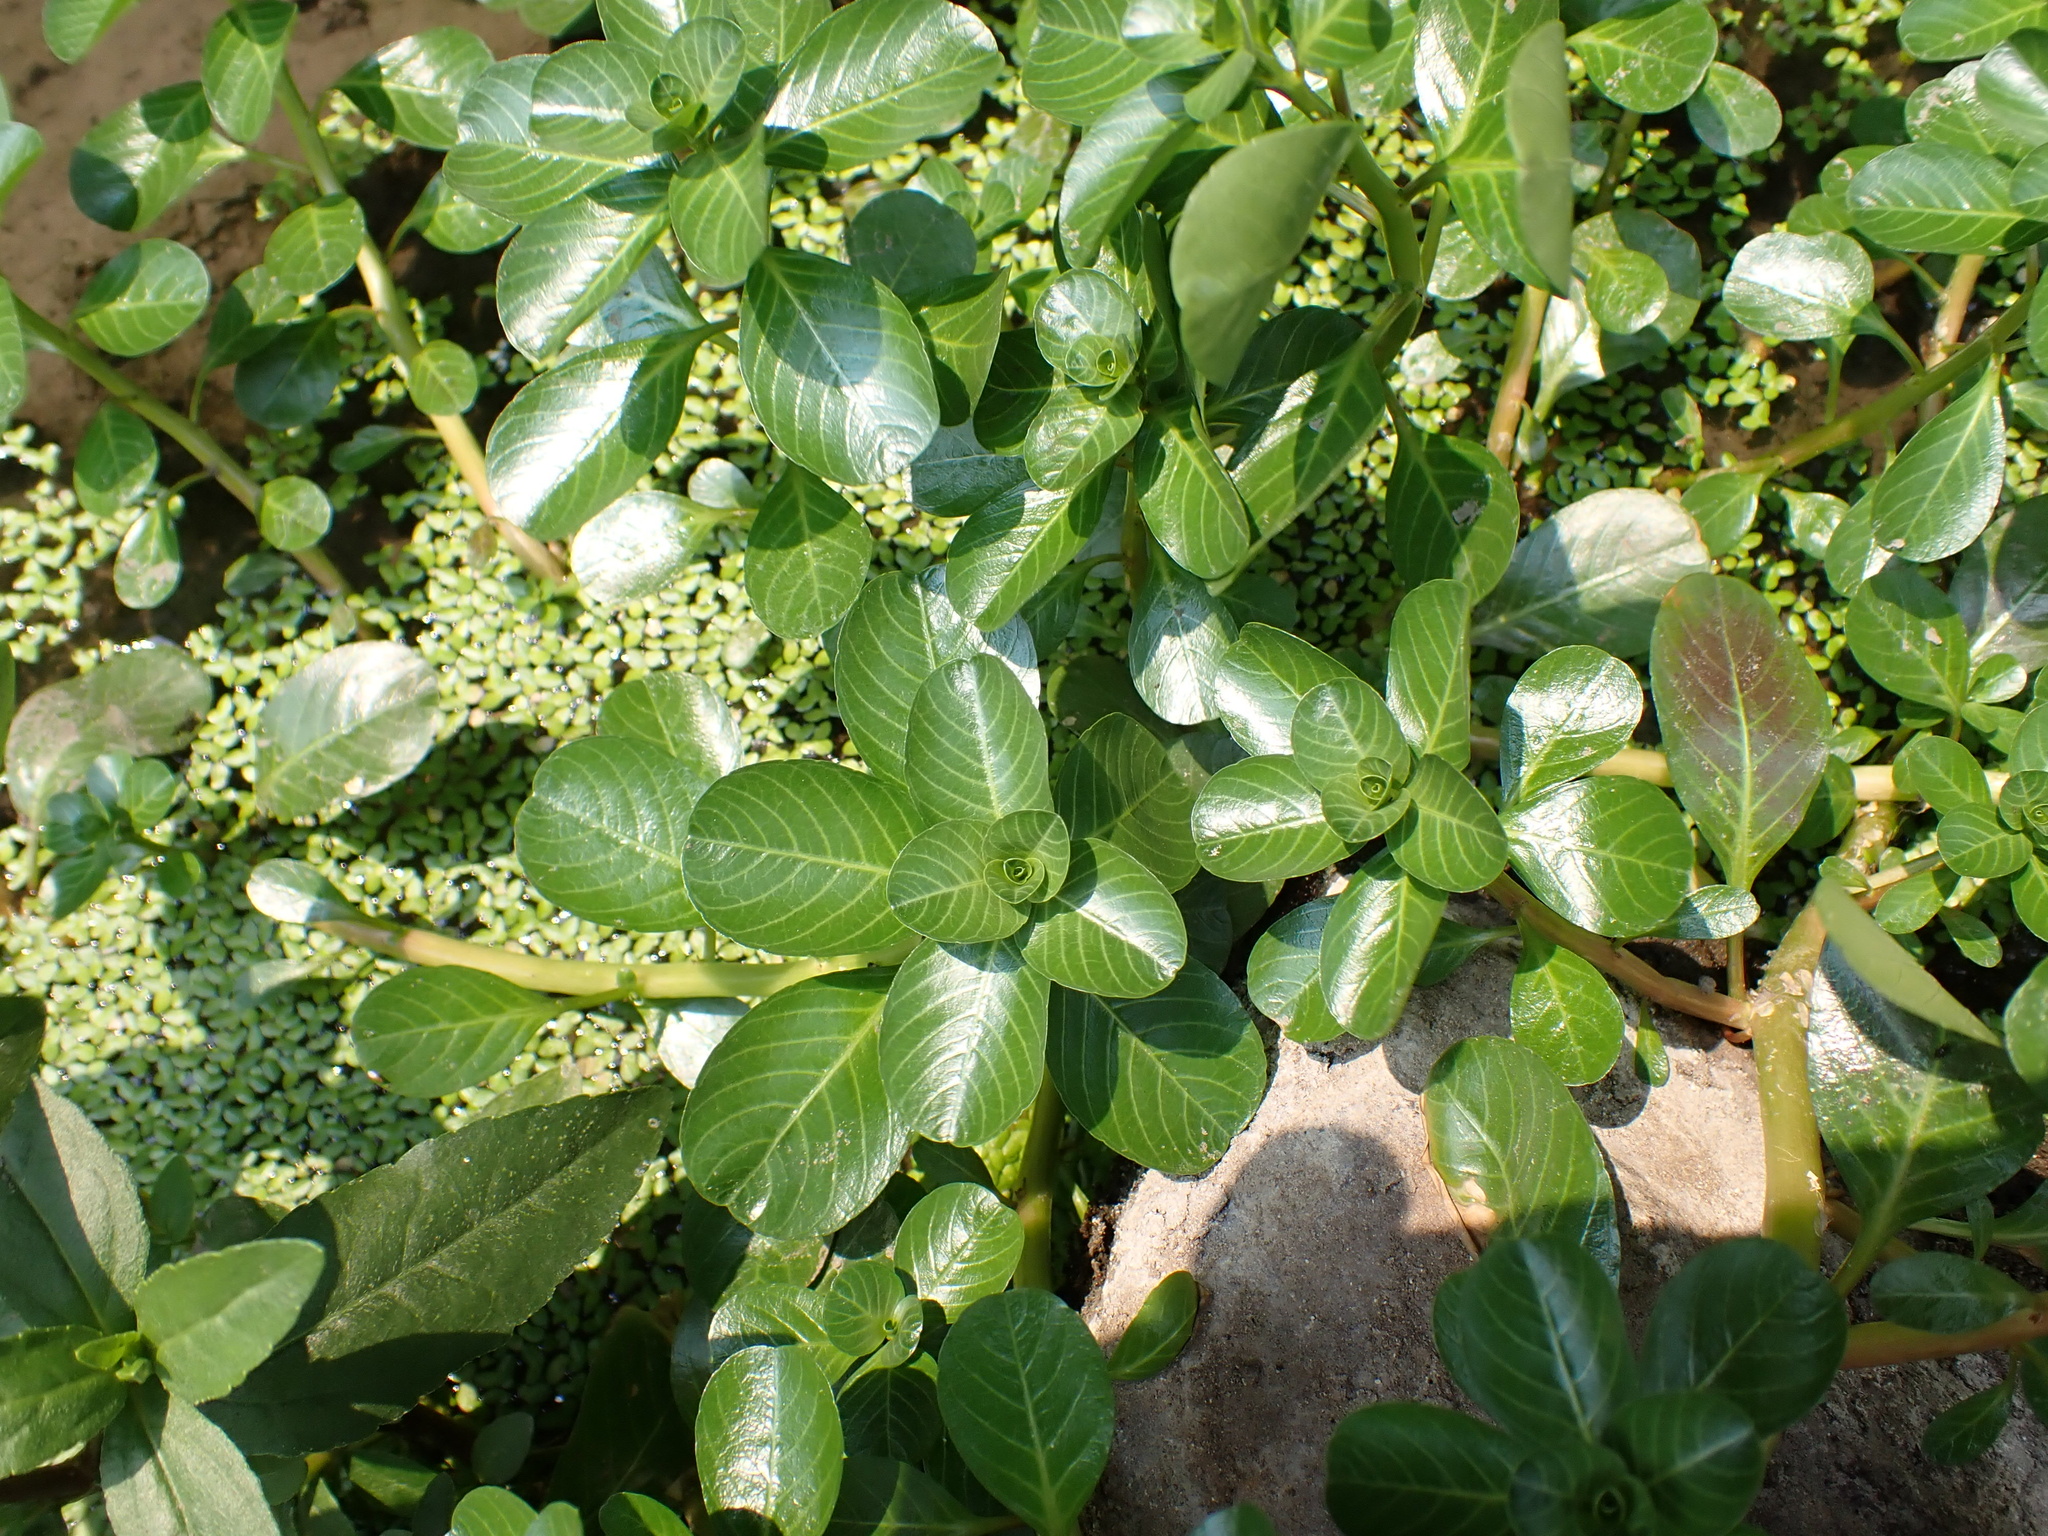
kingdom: Plantae
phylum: Tracheophyta
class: Magnoliopsida
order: Myrtales
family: Onagraceae
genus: Ludwigia
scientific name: Ludwigia adscendens
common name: Creeping water primrose
